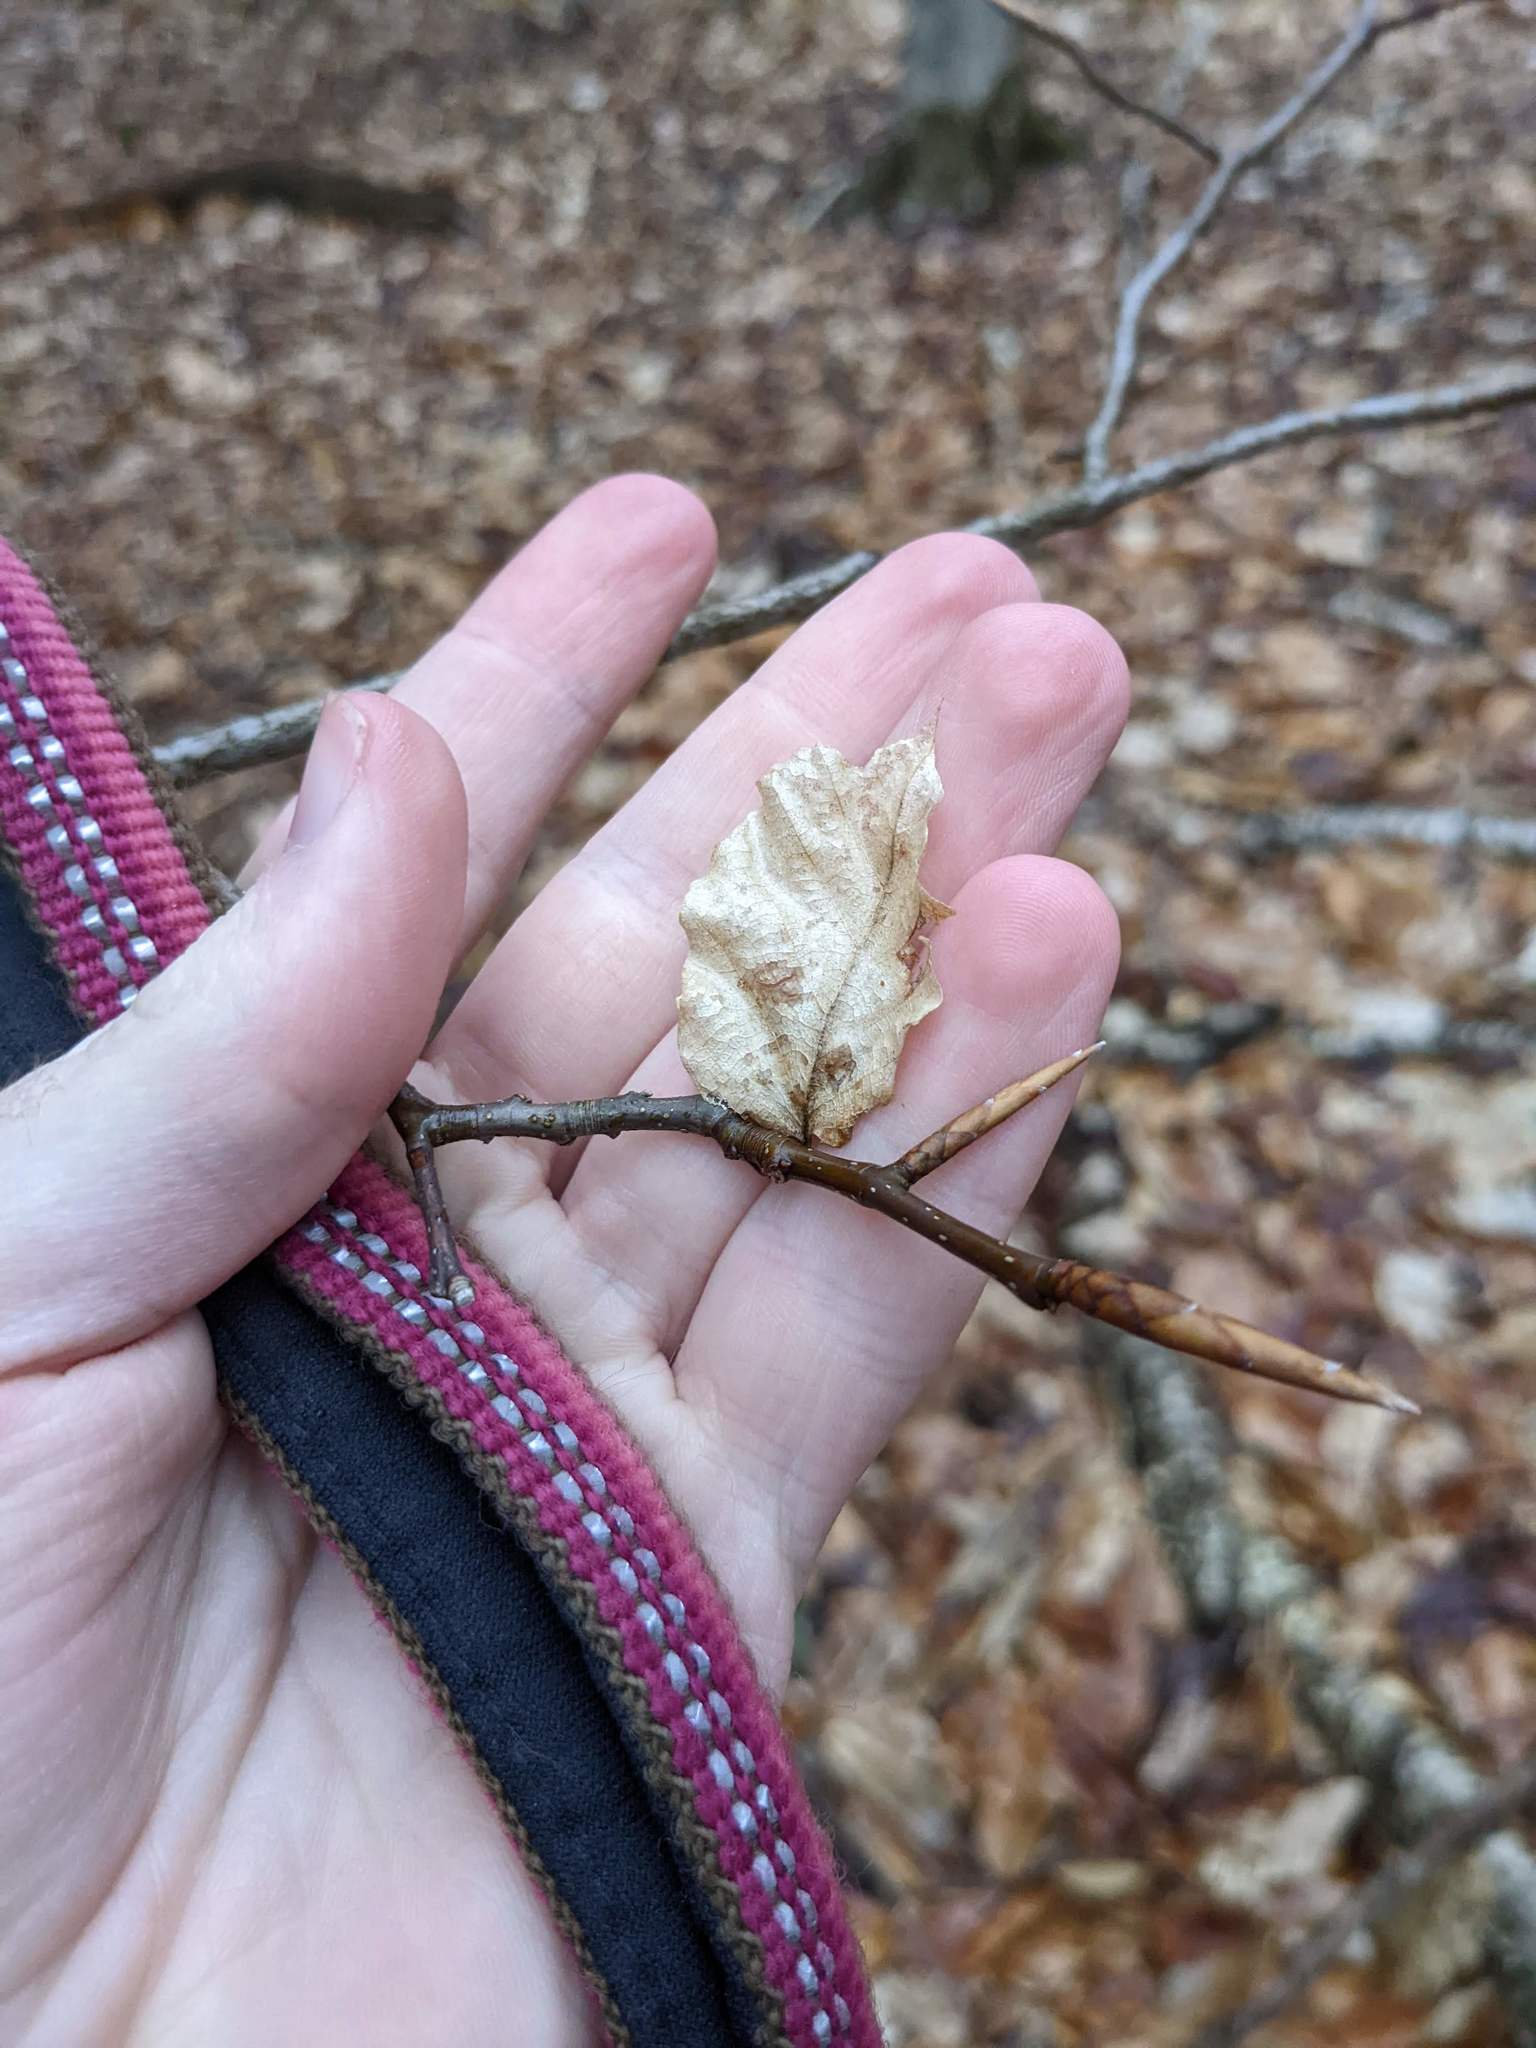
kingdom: Plantae
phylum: Tracheophyta
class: Magnoliopsida
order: Fagales
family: Fagaceae
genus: Fagus
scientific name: Fagus grandifolia
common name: American beech
